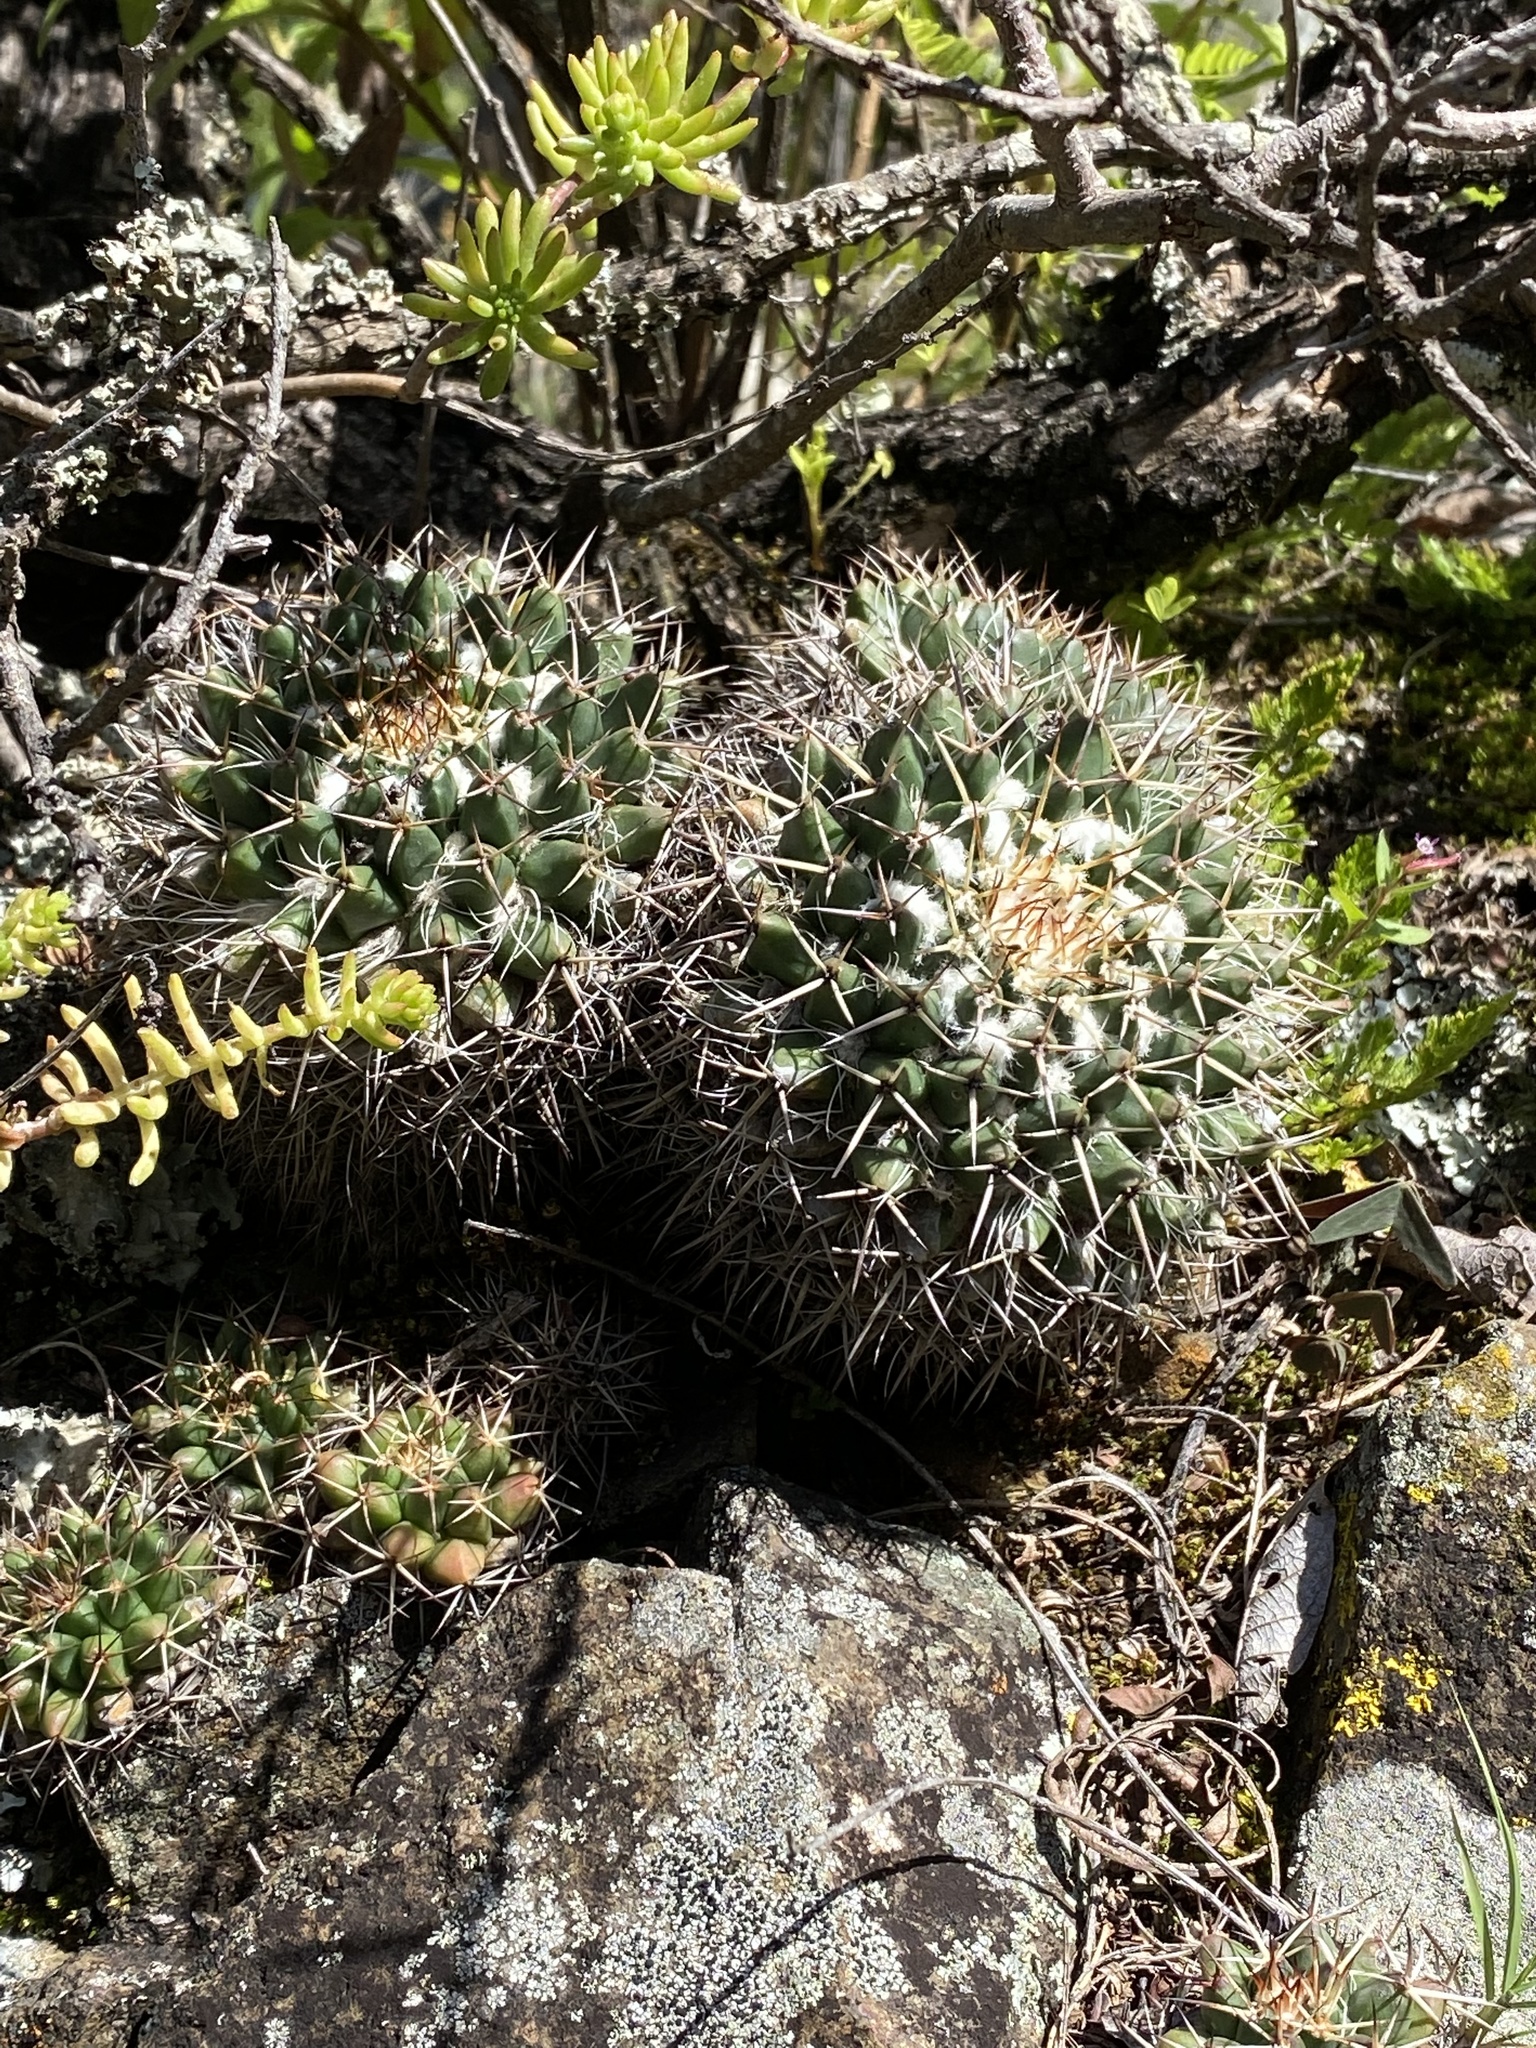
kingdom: Plantae
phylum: Tracheophyta
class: Magnoliopsida
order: Caryophyllales
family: Cactaceae
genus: Mammillaria
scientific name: Mammillaria karwinskiana
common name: Royal cross
